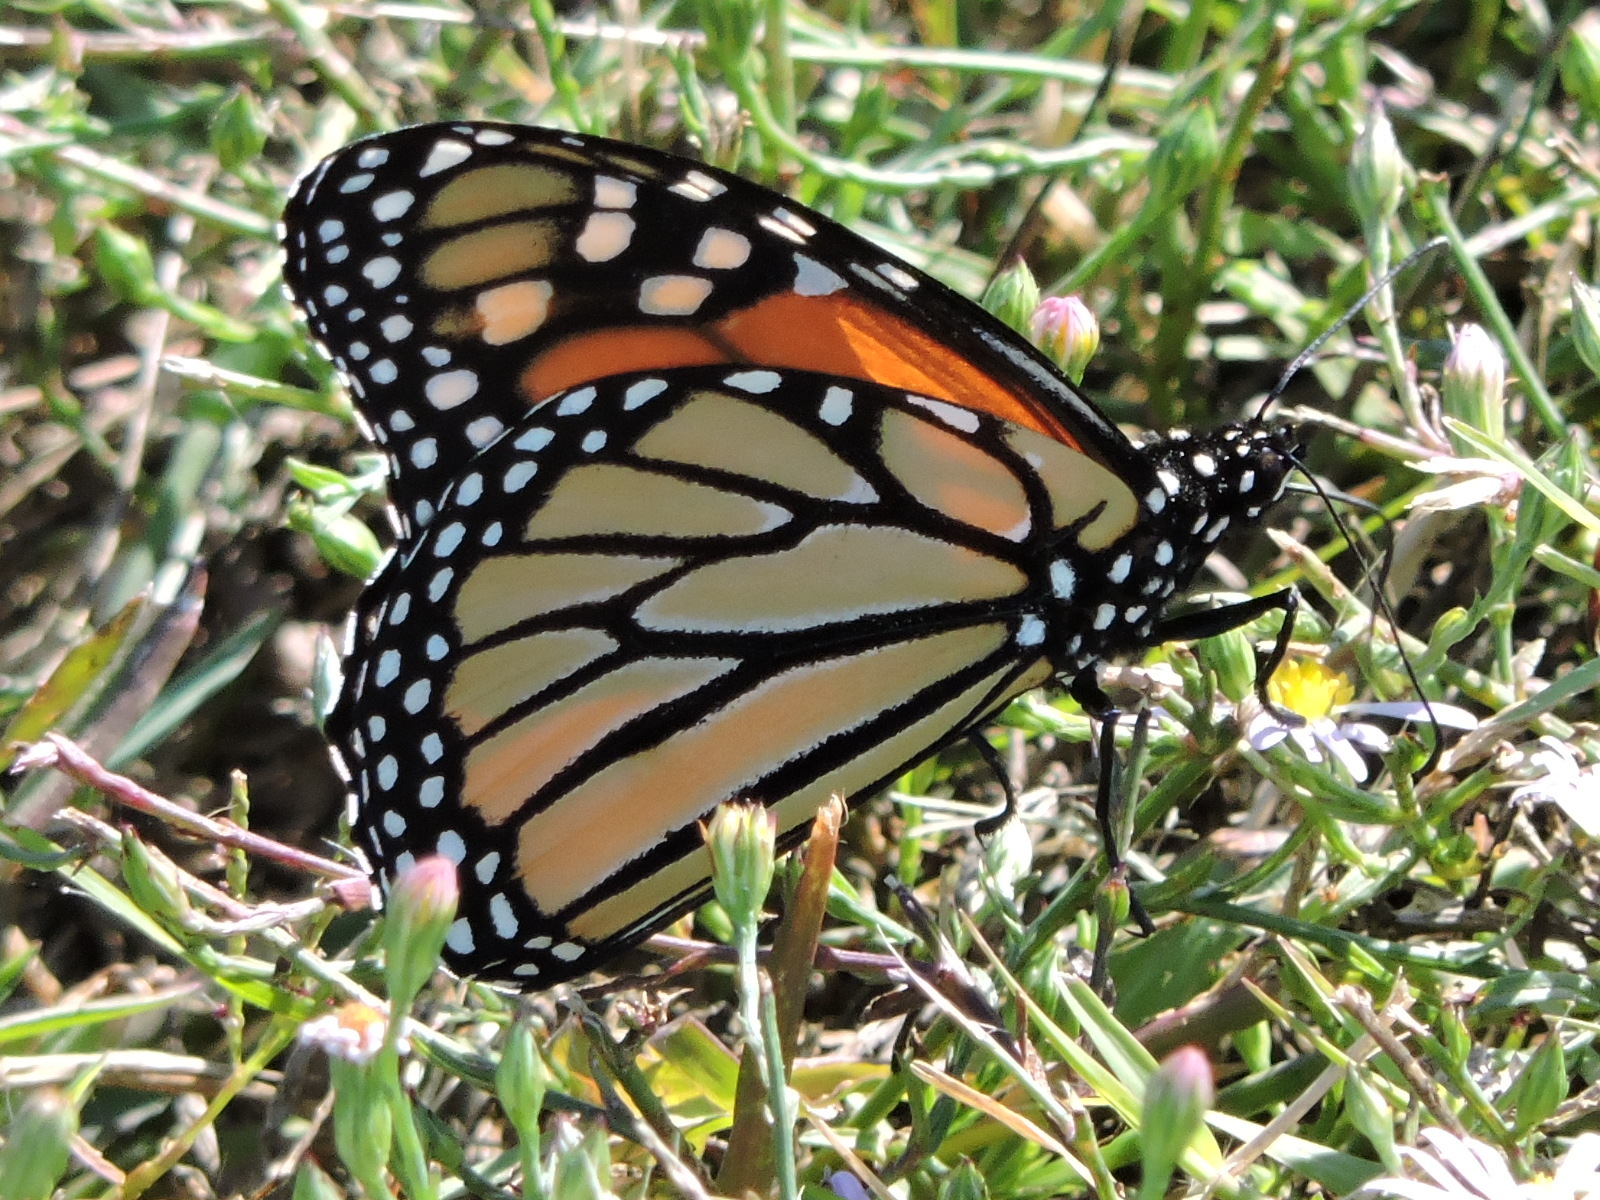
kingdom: Animalia
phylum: Arthropoda
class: Insecta
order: Lepidoptera
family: Nymphalidae
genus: Danaus
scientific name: Danaus plexippus
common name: Monarch
